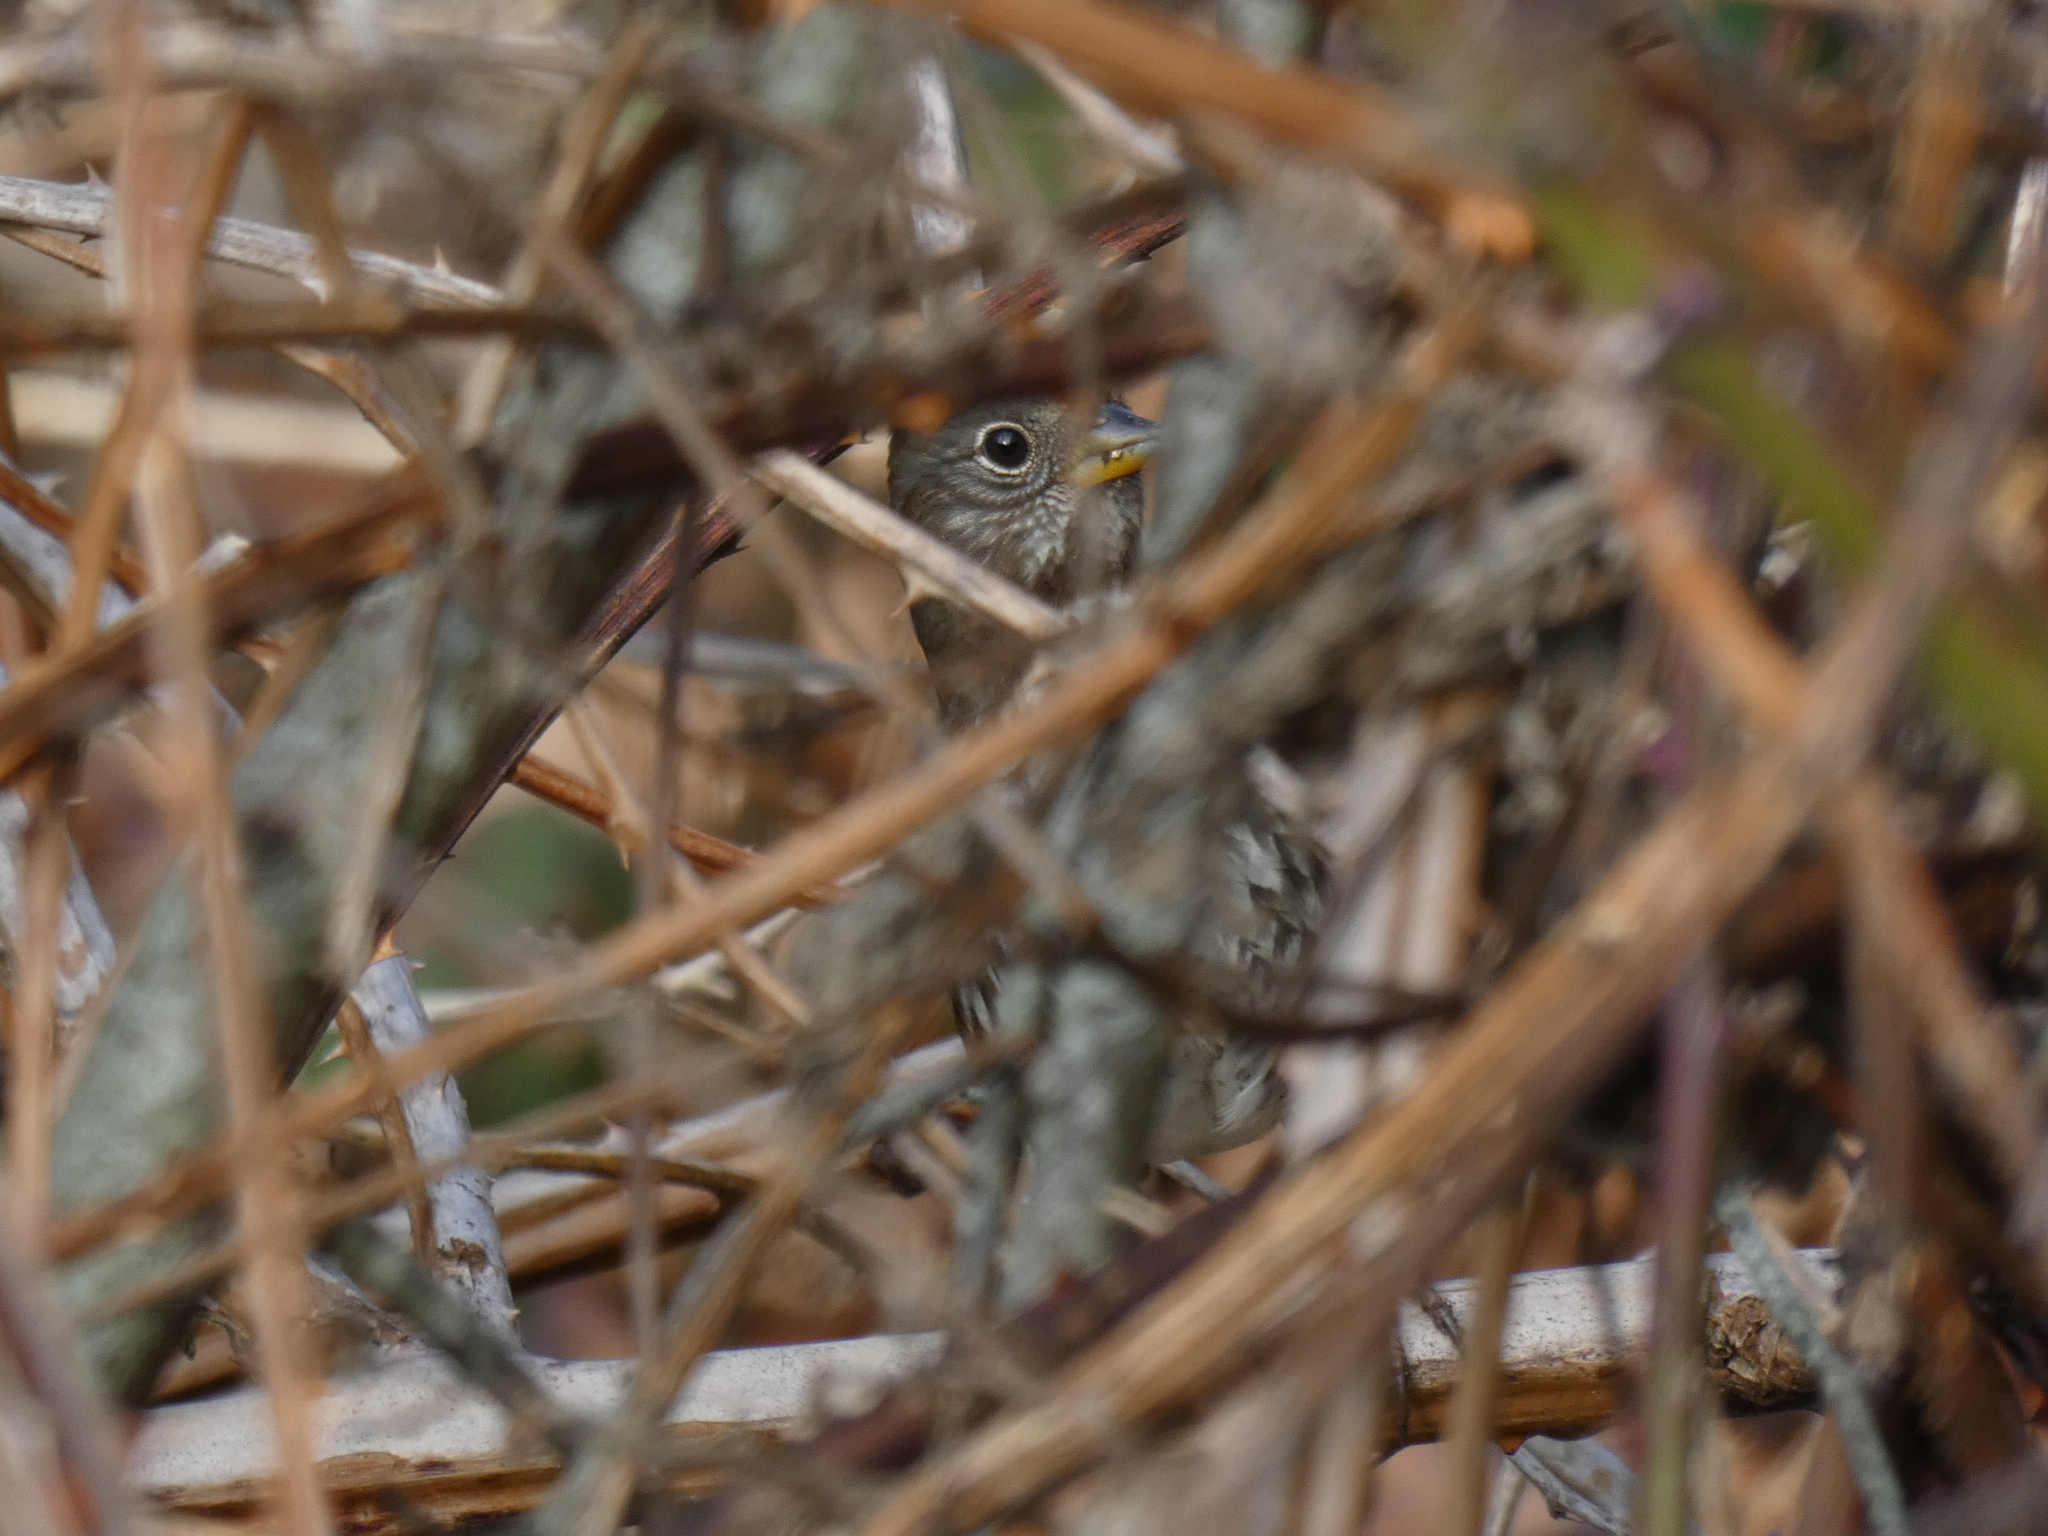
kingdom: Animalia
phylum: Chordata
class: Aves
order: Passeriformes
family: Passerellidae
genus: Passerella
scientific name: Passerella iliaca
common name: Fox sparrow
